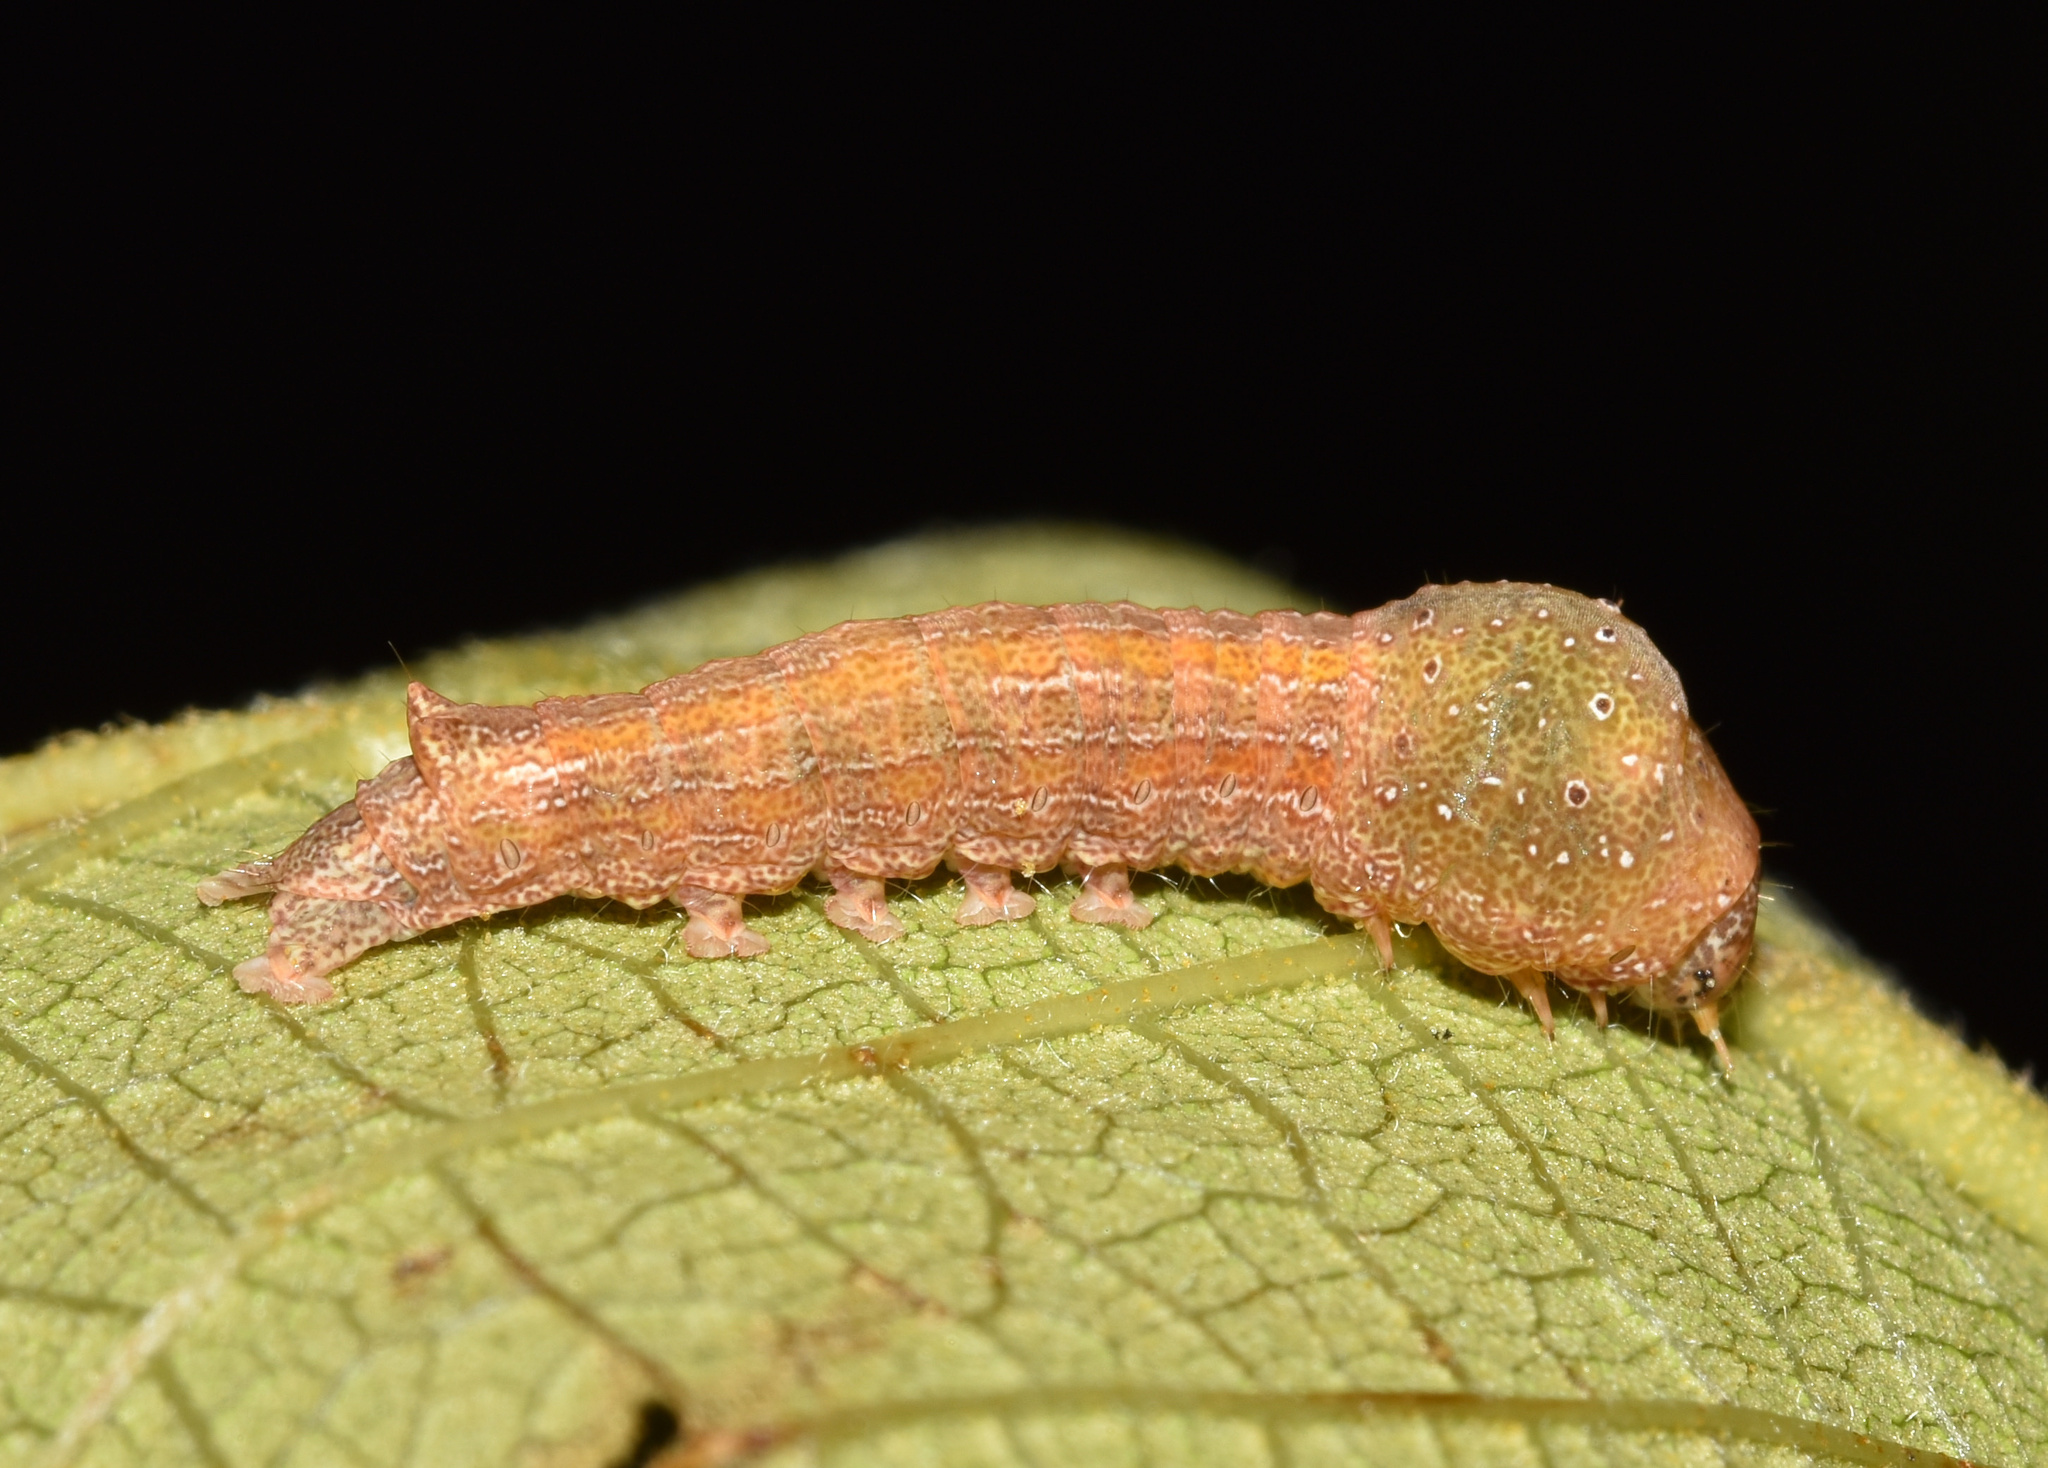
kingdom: Animalia
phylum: Arthropoda
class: Insecta
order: Lepidoptera
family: Nolidae
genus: Maurilia
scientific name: Maurilia arcuata
